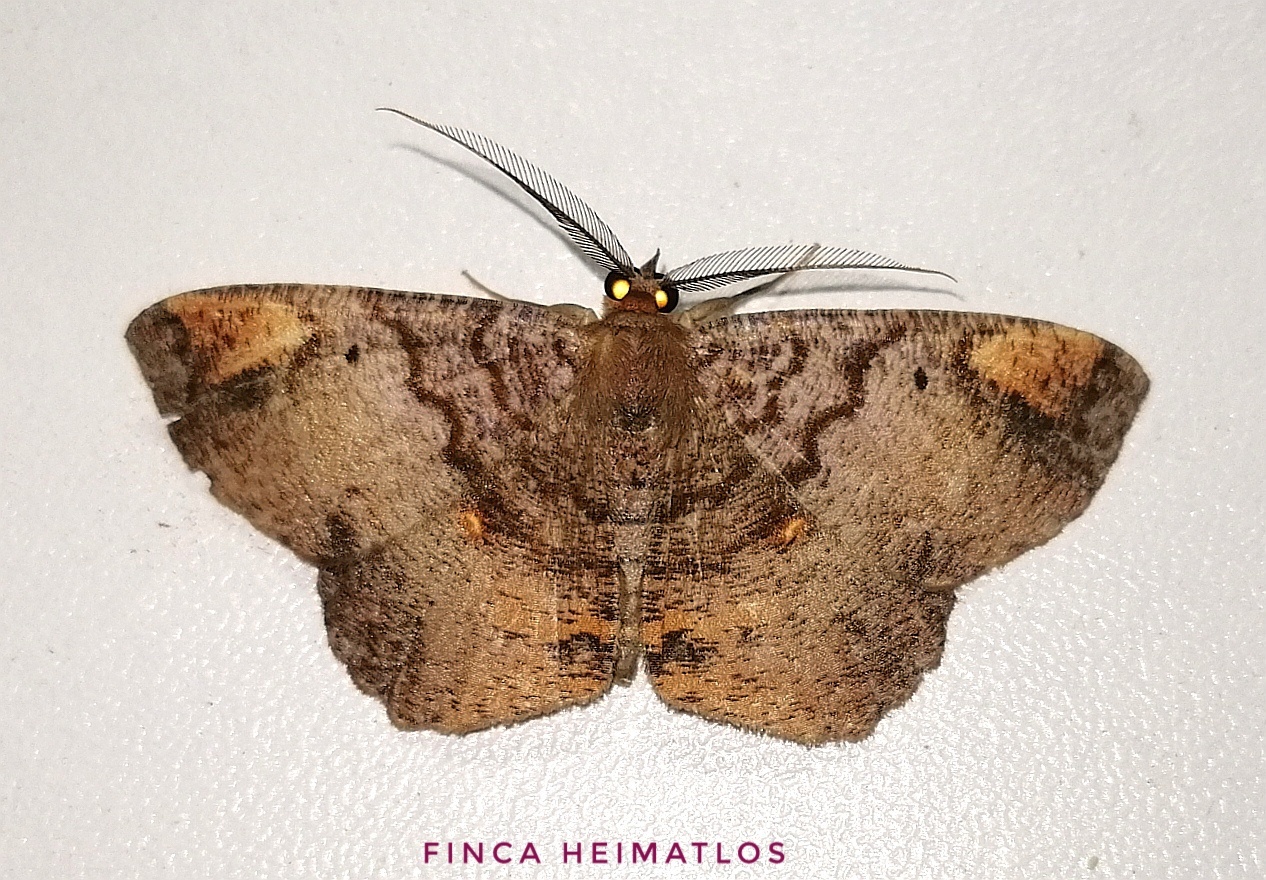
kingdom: Animalia
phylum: Arthropoda
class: Insecta
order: Lepidoptera
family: Geometridae
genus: Thysanopyga
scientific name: Thysanopyga
